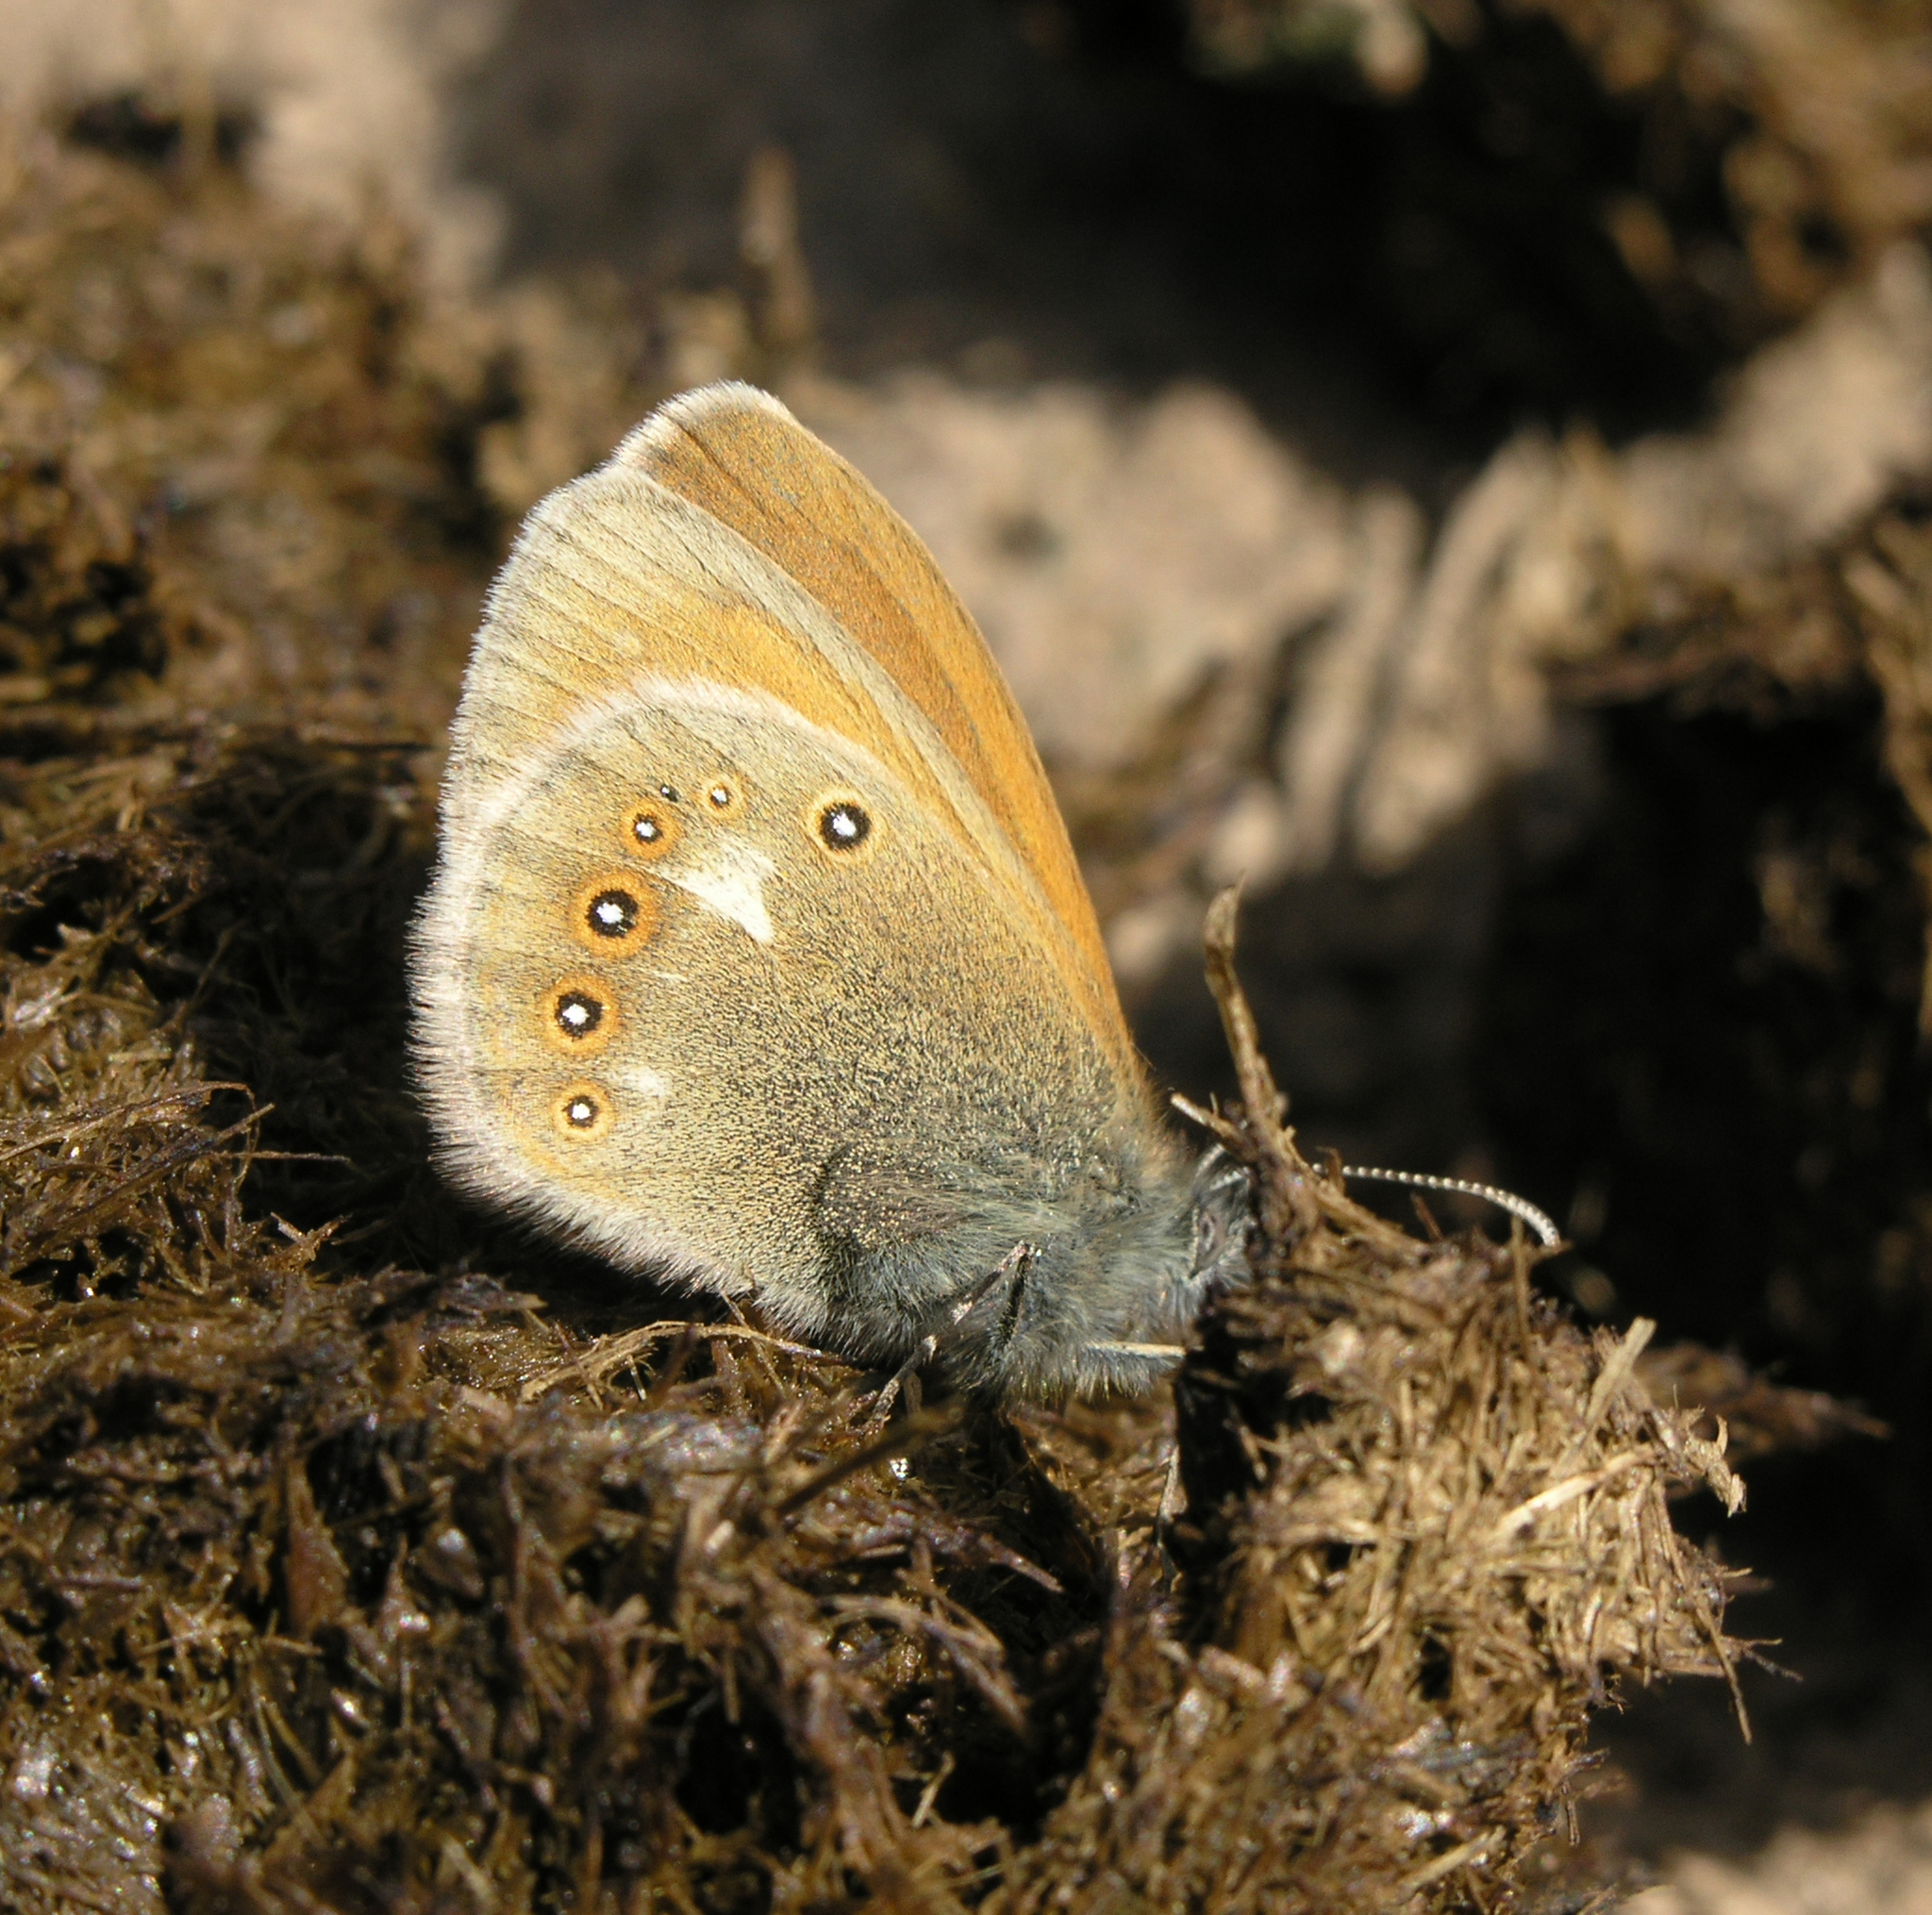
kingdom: Animalia
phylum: Arthropoda
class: Insecta
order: Lepidoptera
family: Nymphalidae
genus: Coenonympha
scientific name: Coenonympha iphis
